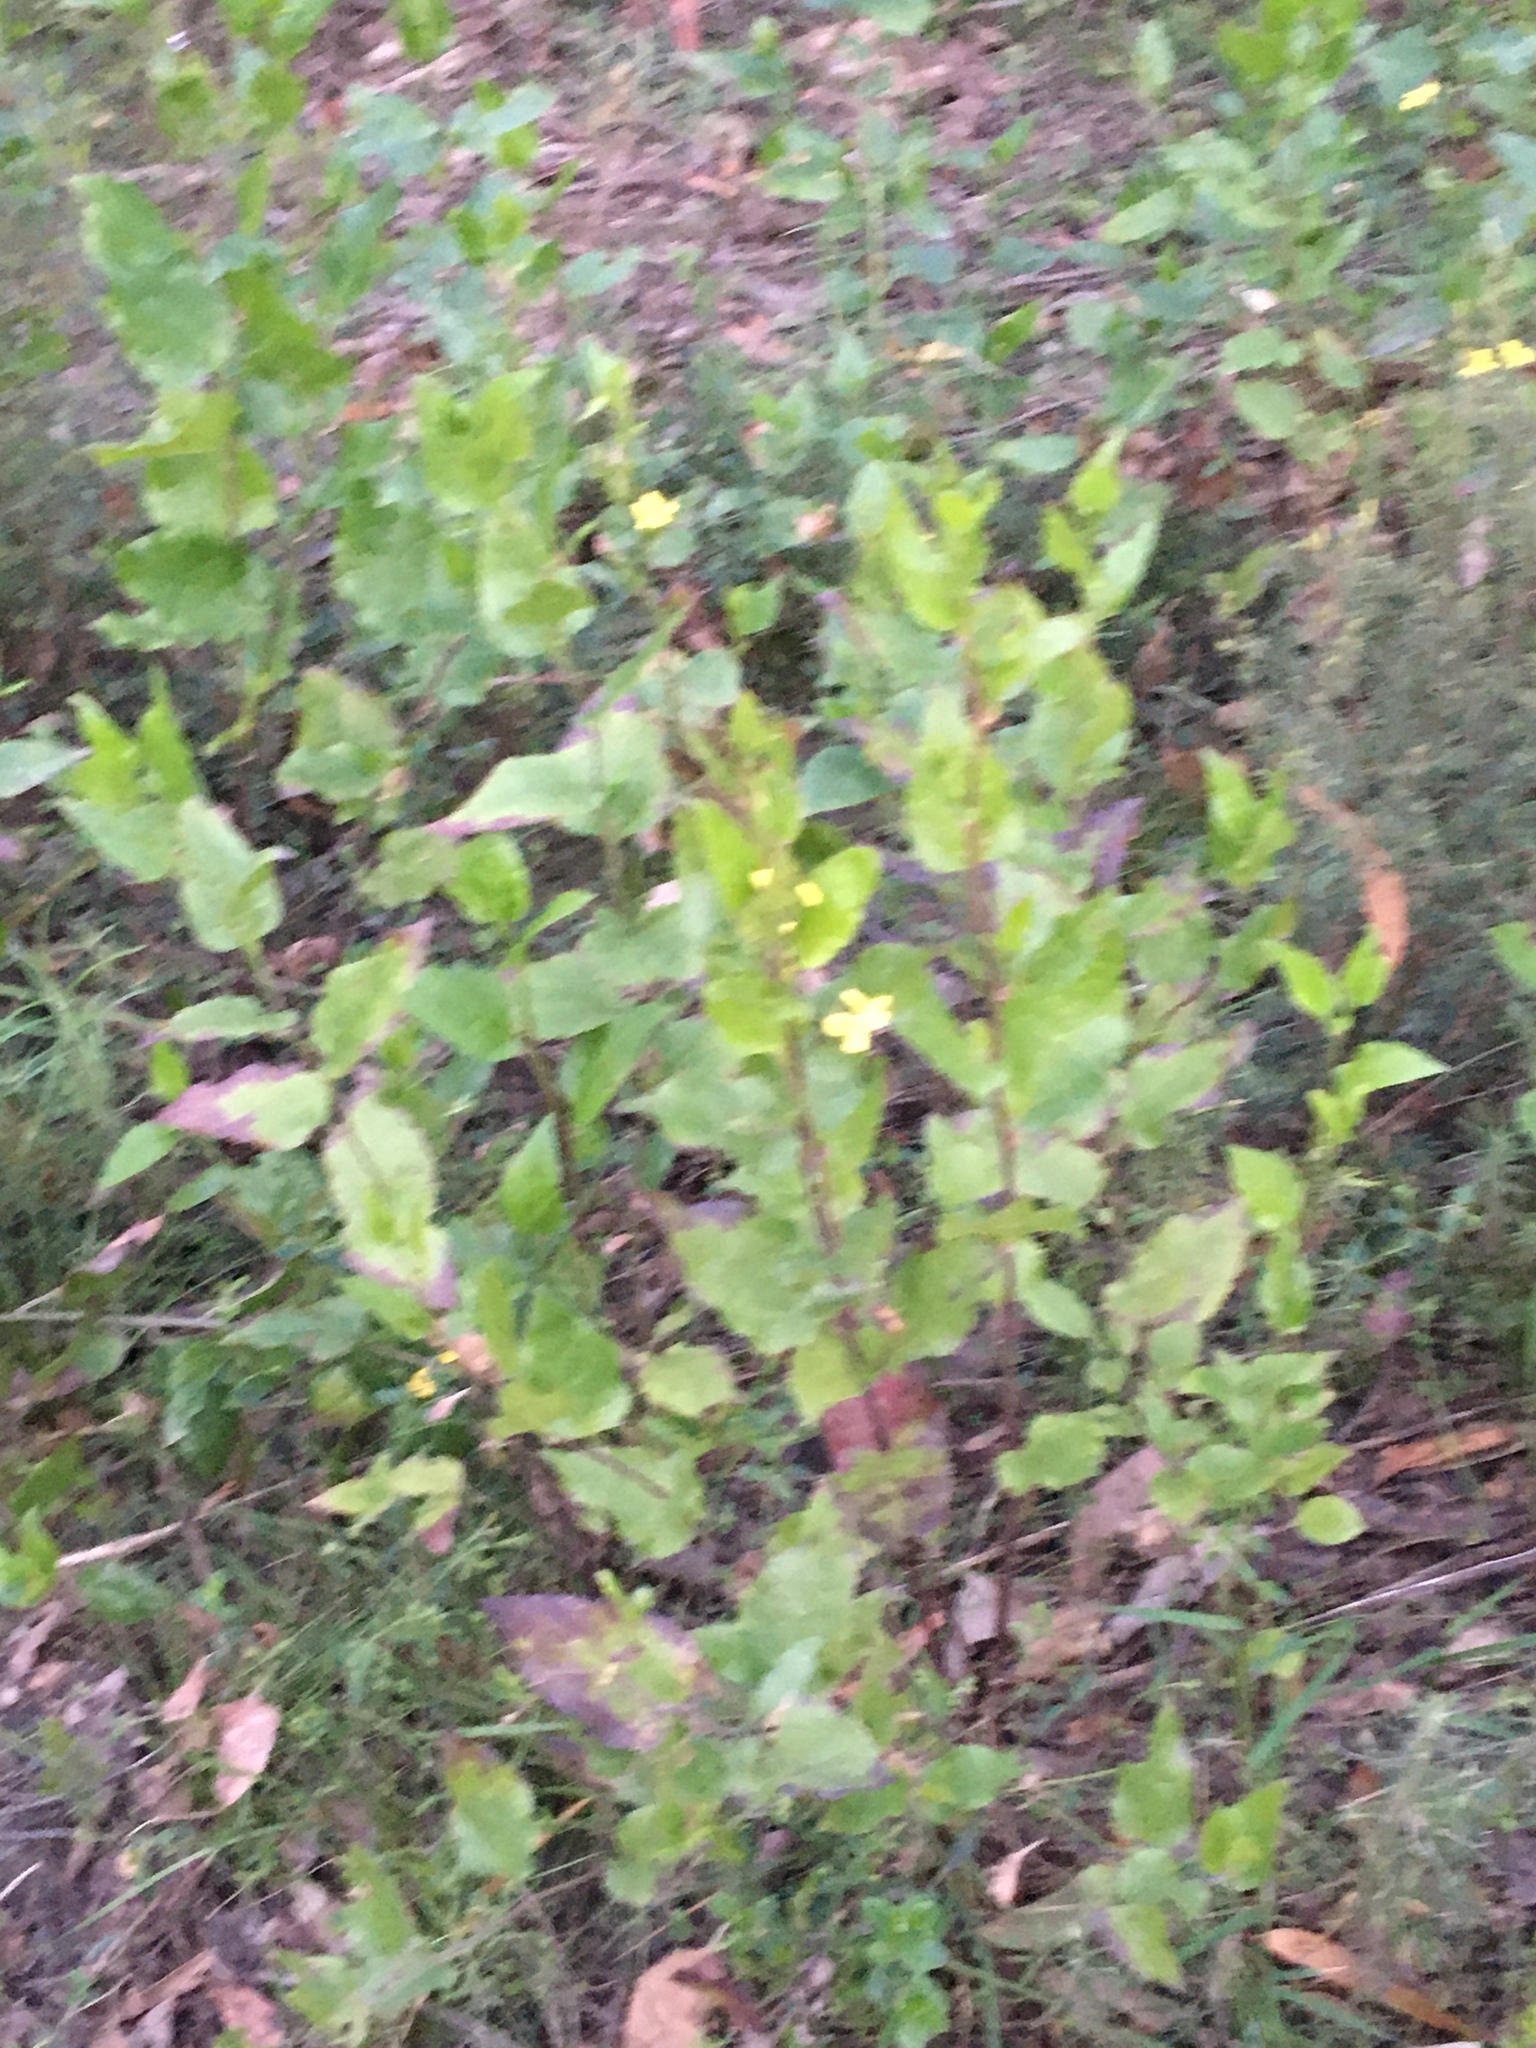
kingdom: Plantae
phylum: Tracheophyta
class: Magnoliopsida
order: Asterales
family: Goodeniaceae
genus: Goodenia
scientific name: Goodenia ovata
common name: Hop goodenia
